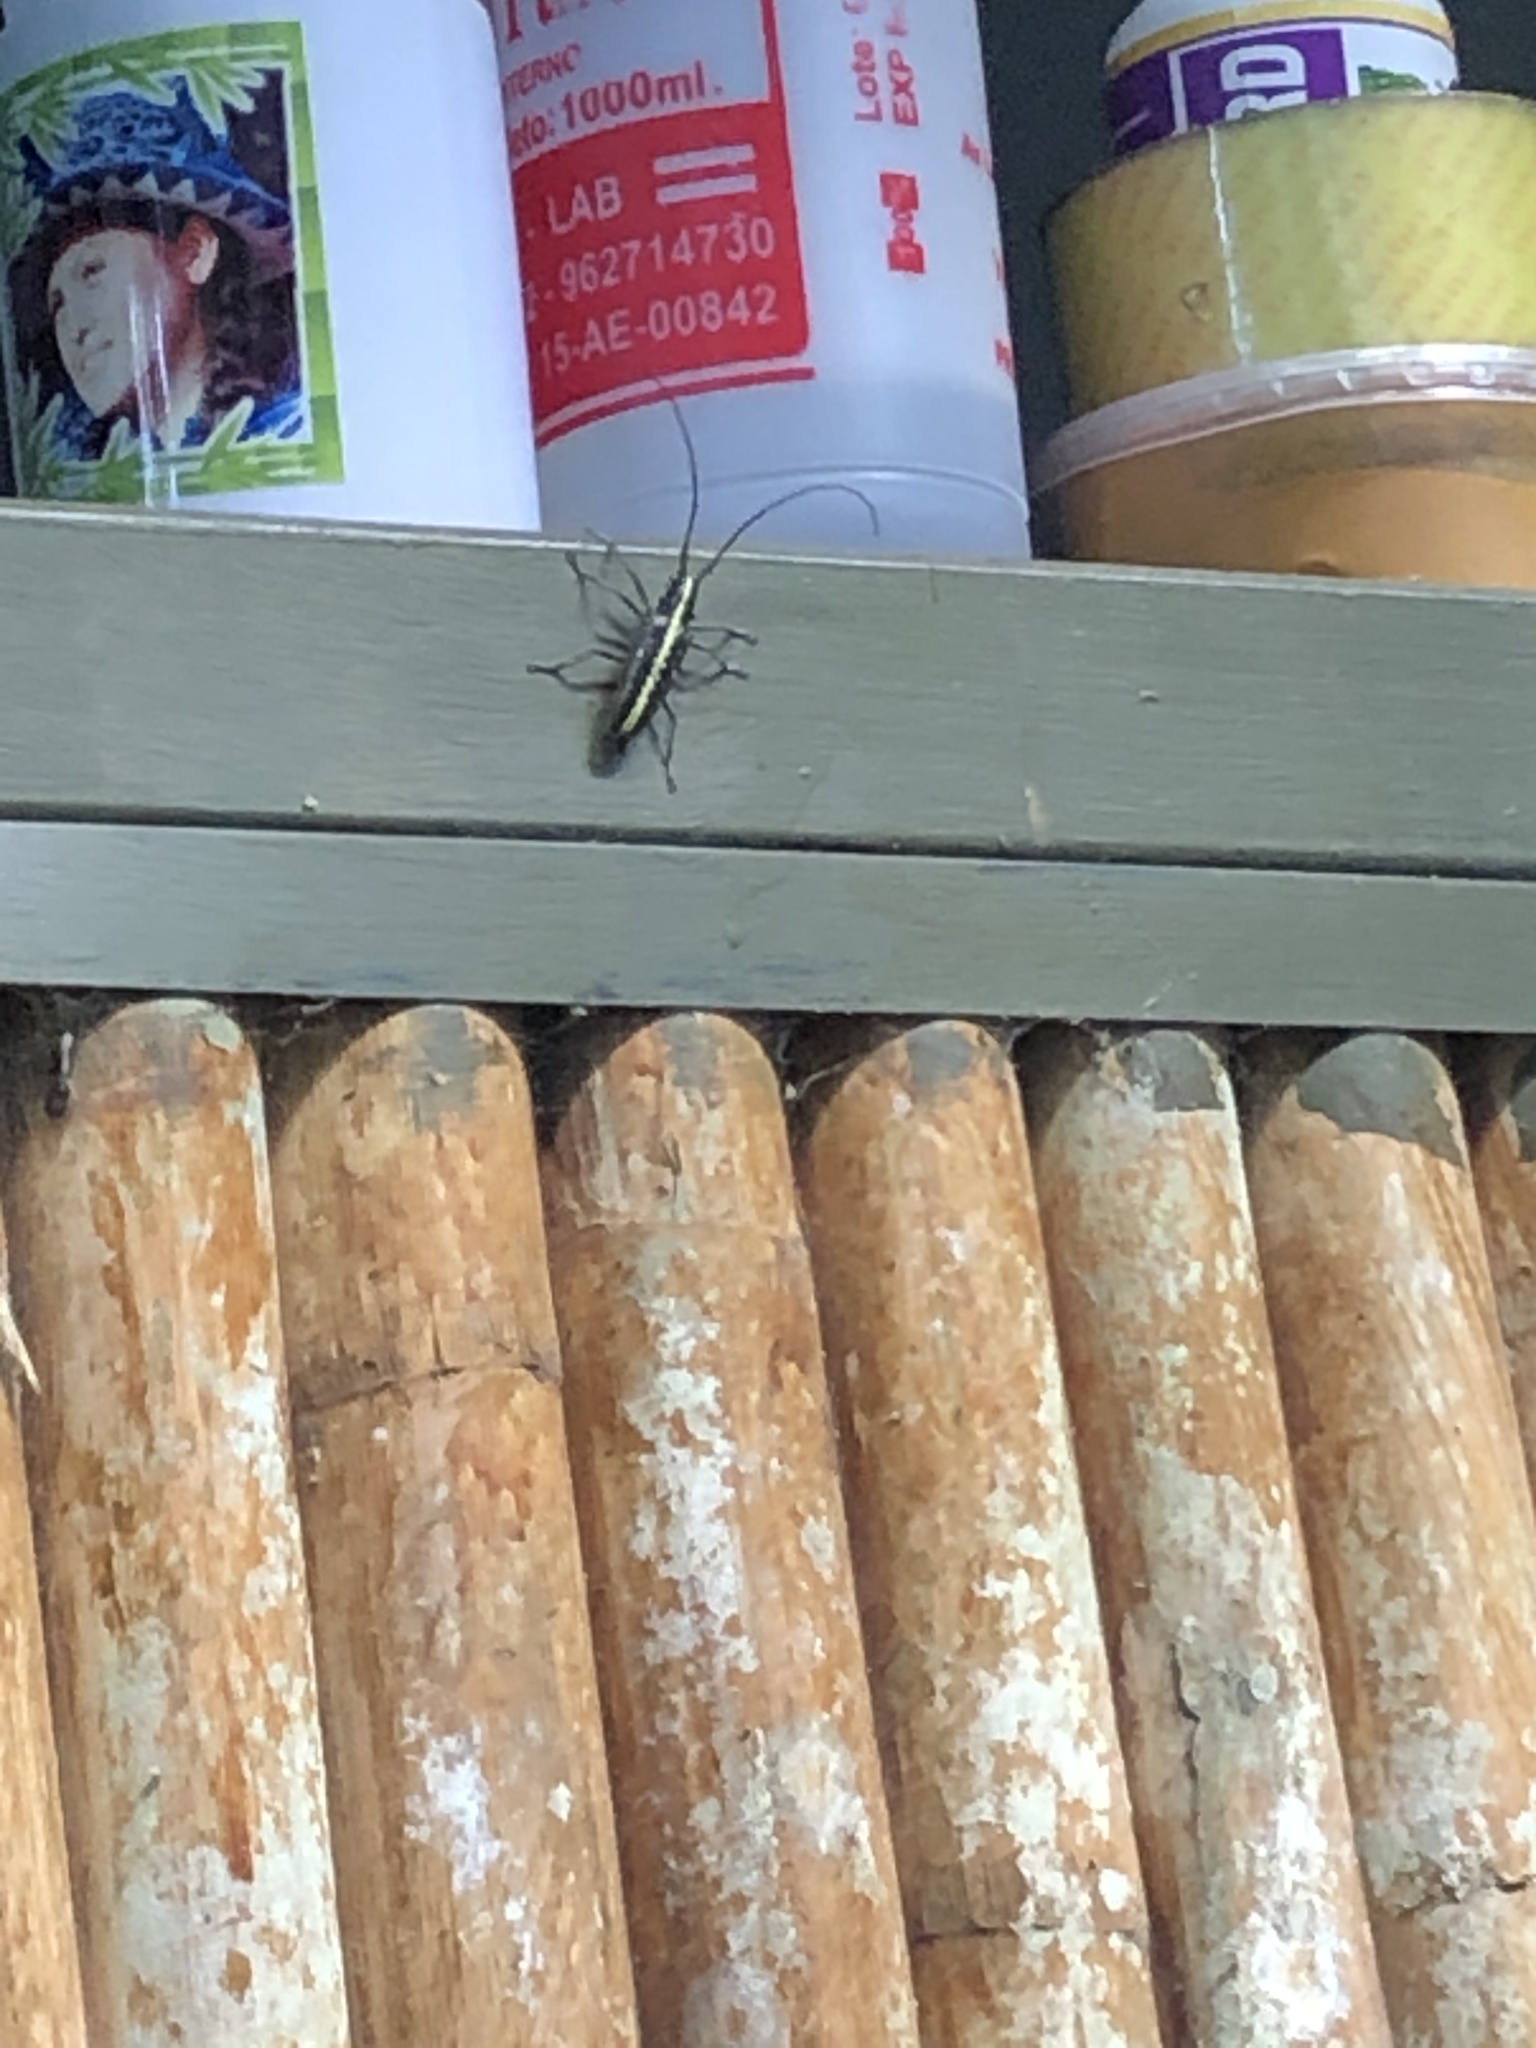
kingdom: Animalia
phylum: Arthropoda
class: Insecta
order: Coleoptera
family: Cerambycidae
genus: Taeniotes
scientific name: Taeniotes scalatus
